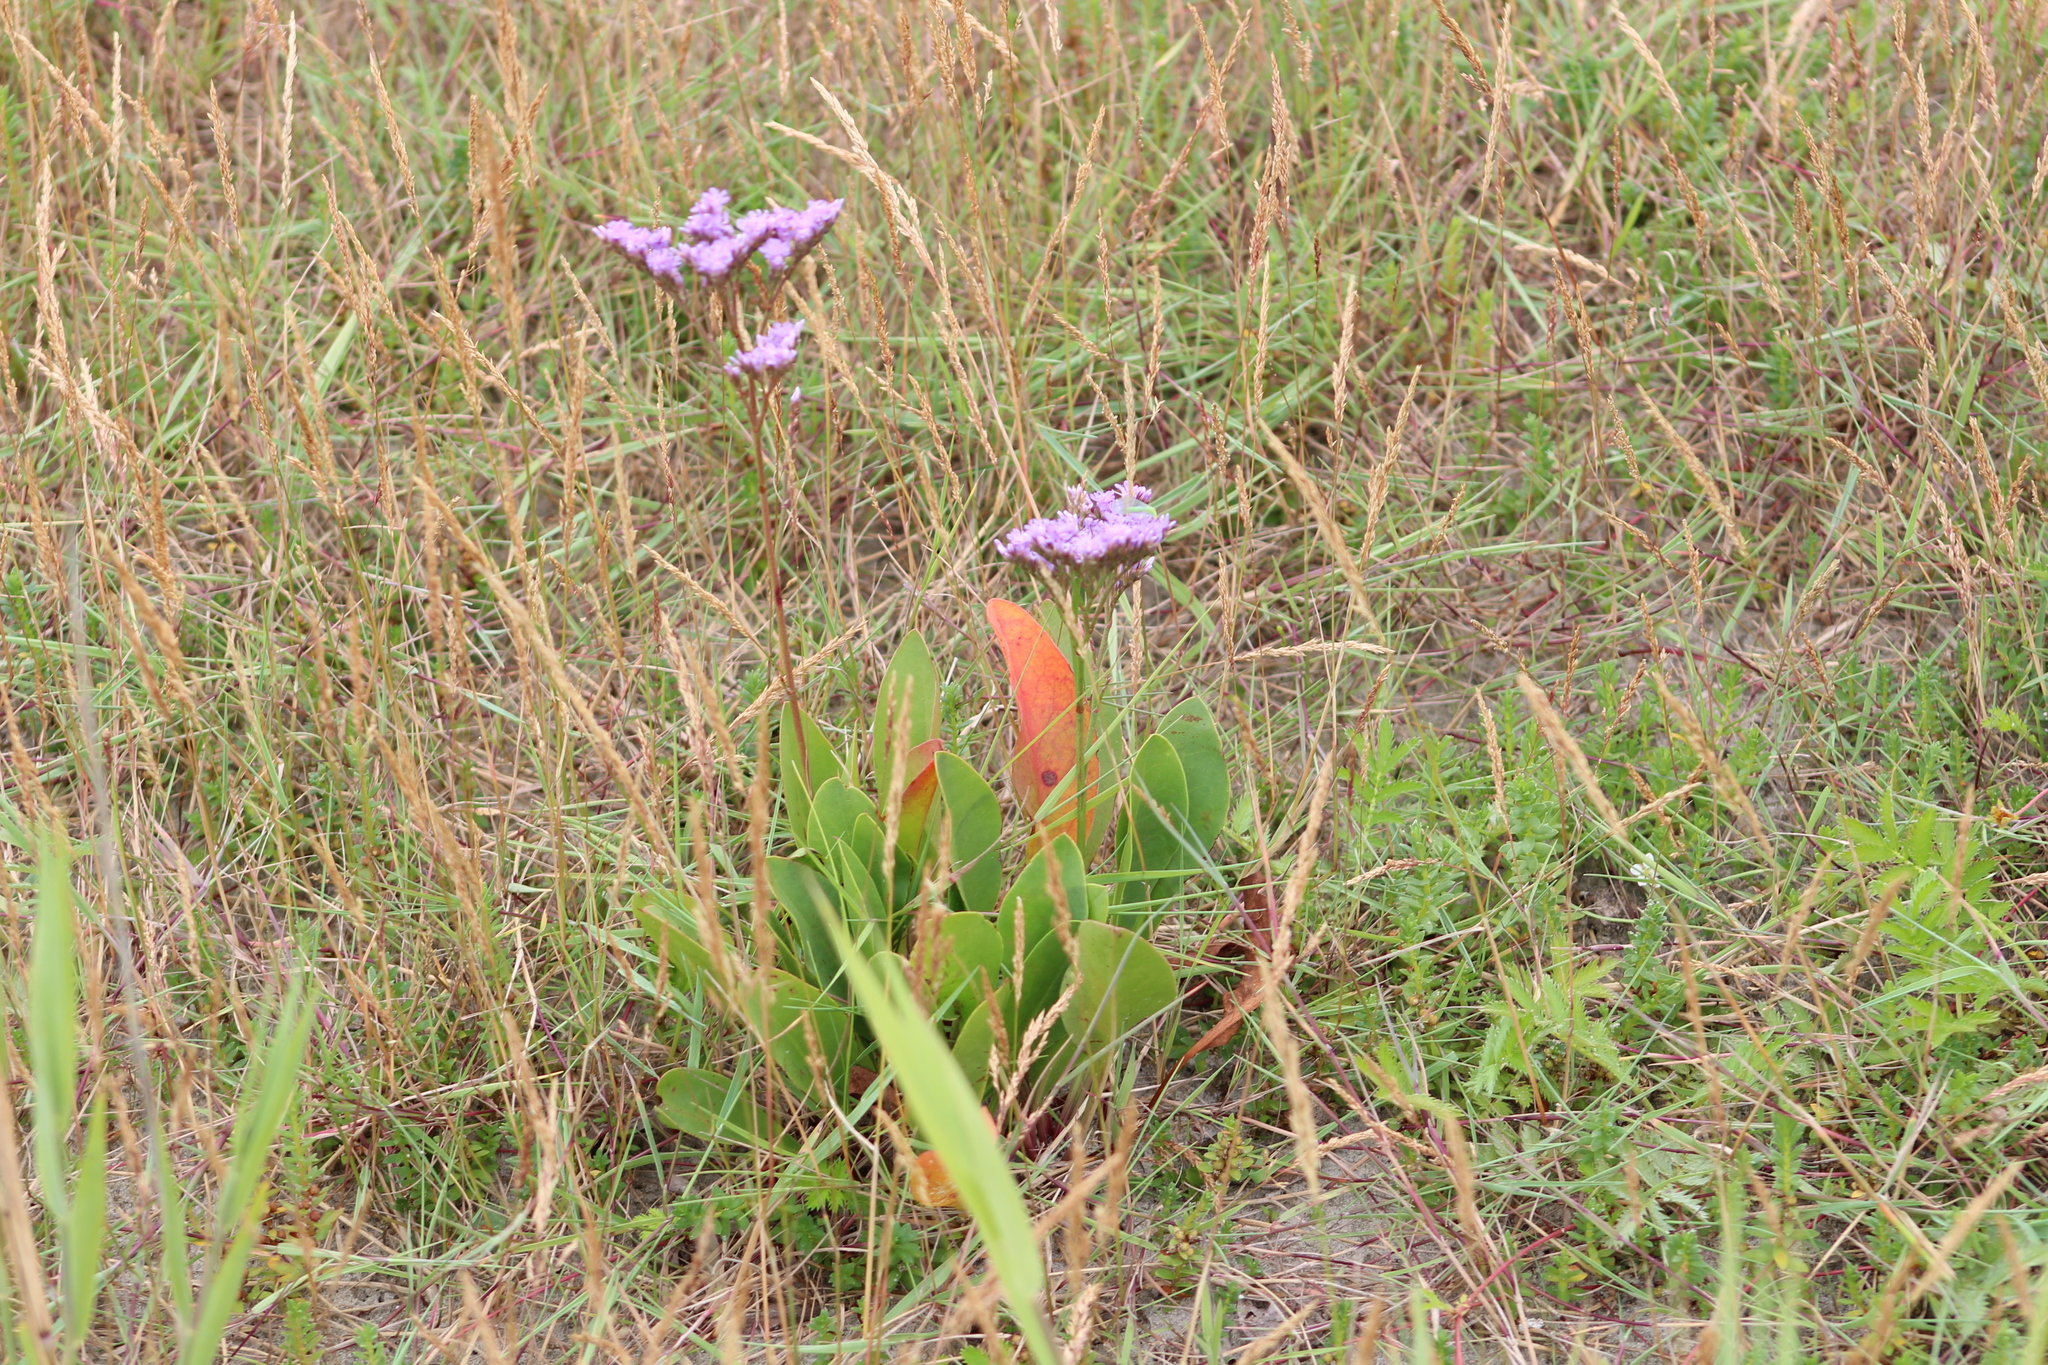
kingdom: Plantae
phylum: Tracheophyta
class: Magnoliopsida
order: Caryophyllales
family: Plumbaginaceae
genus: Limonium
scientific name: Limonium vulgare
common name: Common sea-lavender
